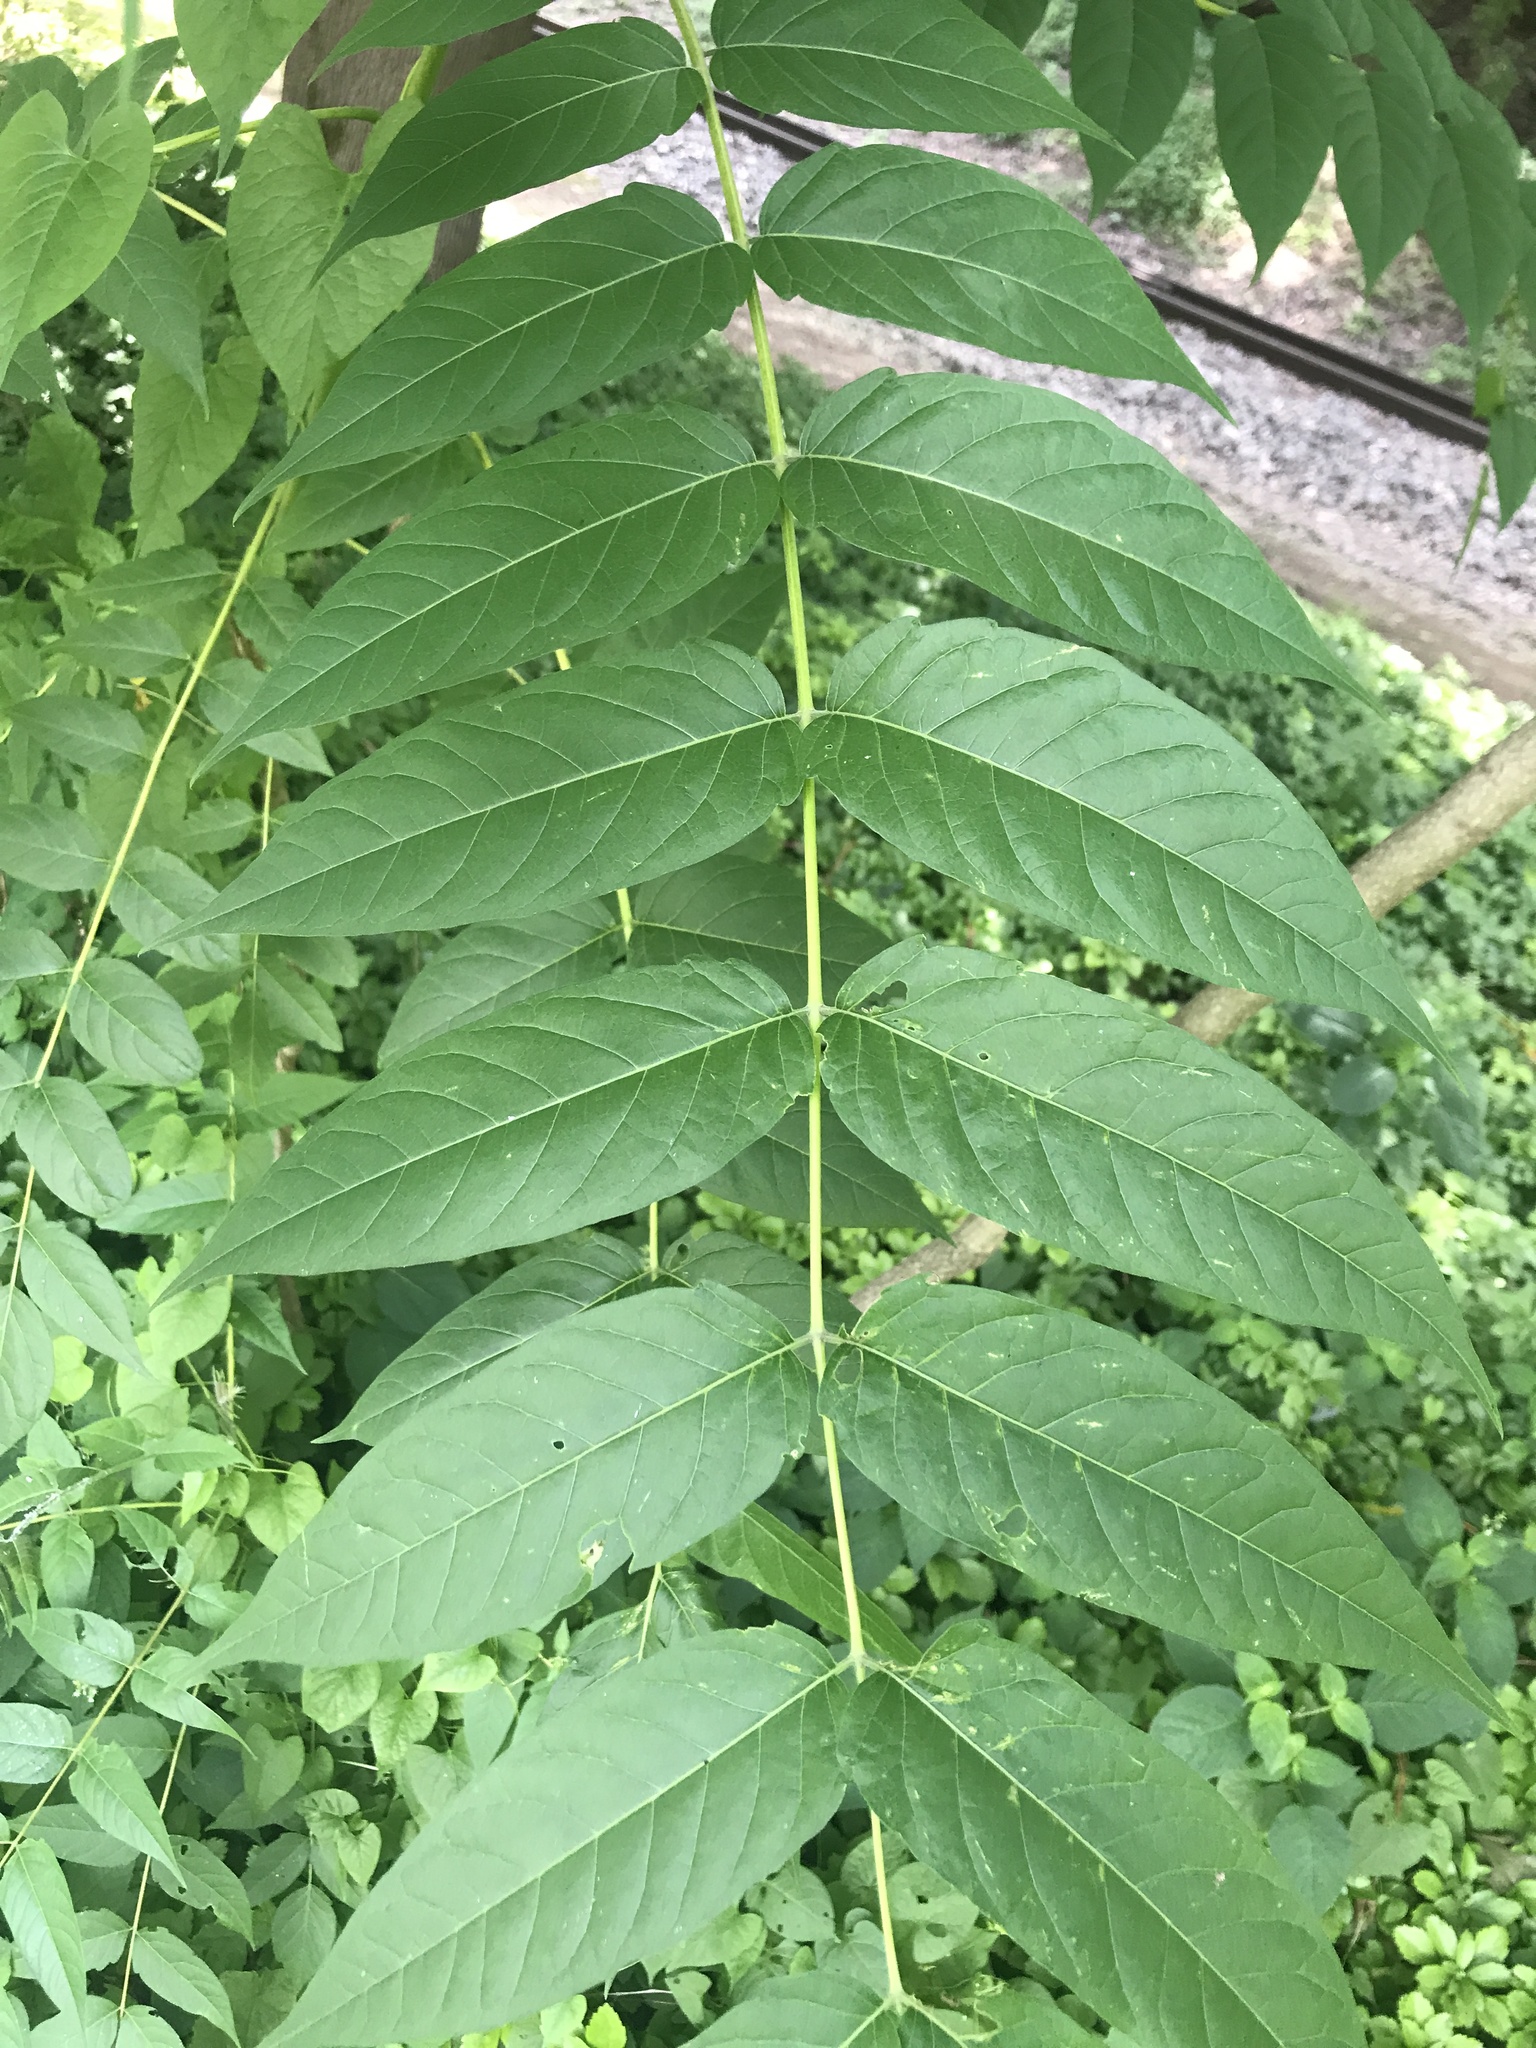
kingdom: Plantae
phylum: Tracheophyta
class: Magnoliopsida
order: Sapindales
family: Simaroubaceae
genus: Ailanthus
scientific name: Ailanthus altissima
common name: Tree-of-heaven
